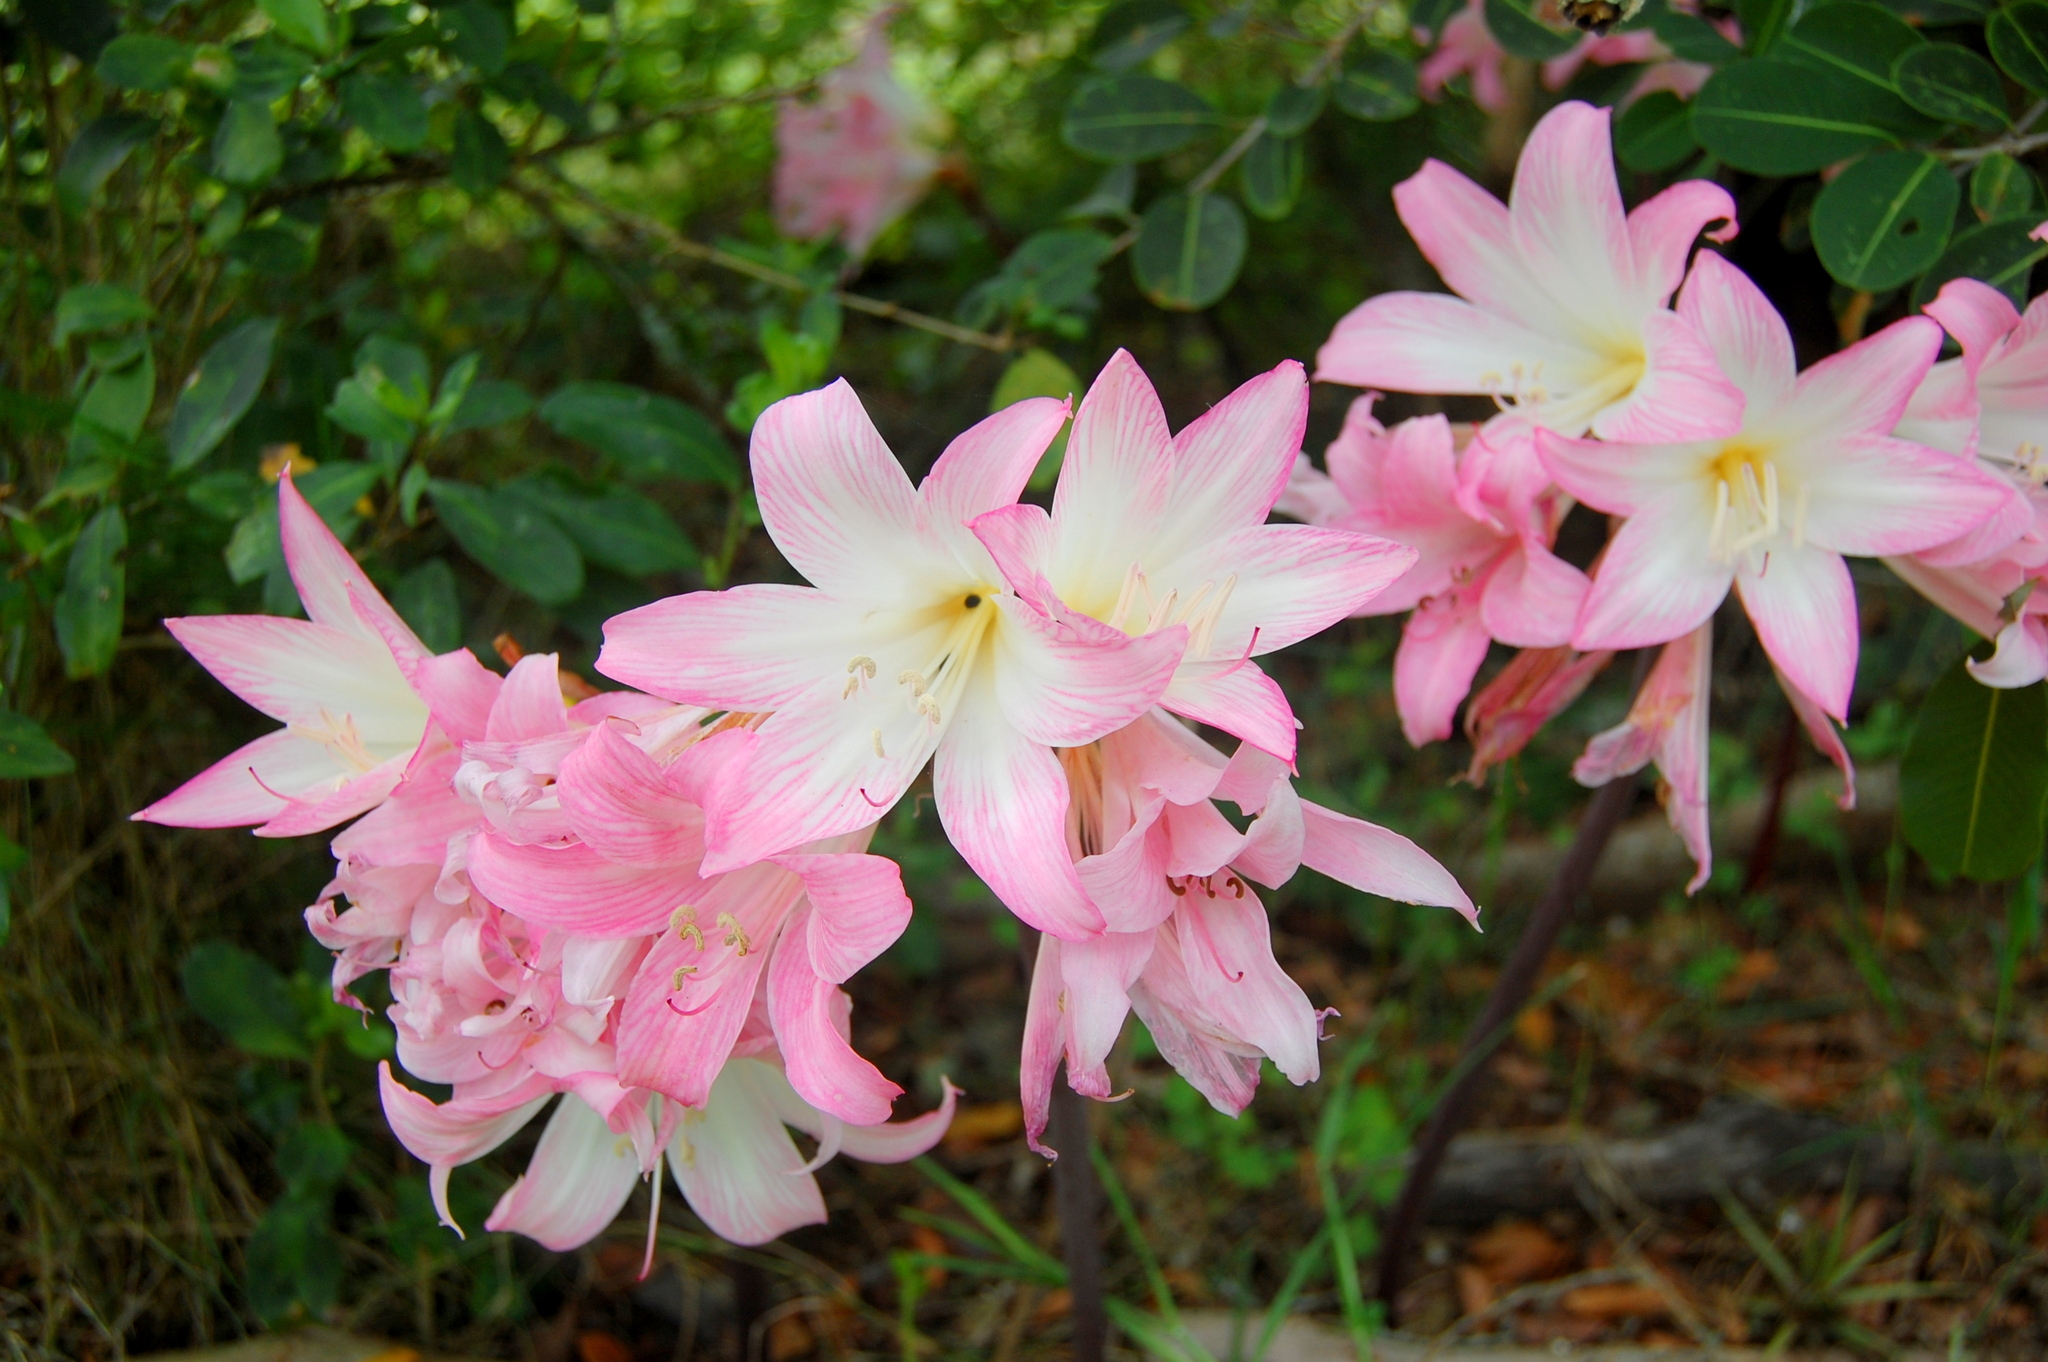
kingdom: Plantae
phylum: Tracheophyta
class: Liliopsida
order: Asparagales
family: Amaryllidaceae
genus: Amaryllis
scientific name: Amaryllis belladonna
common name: Jersey lily
